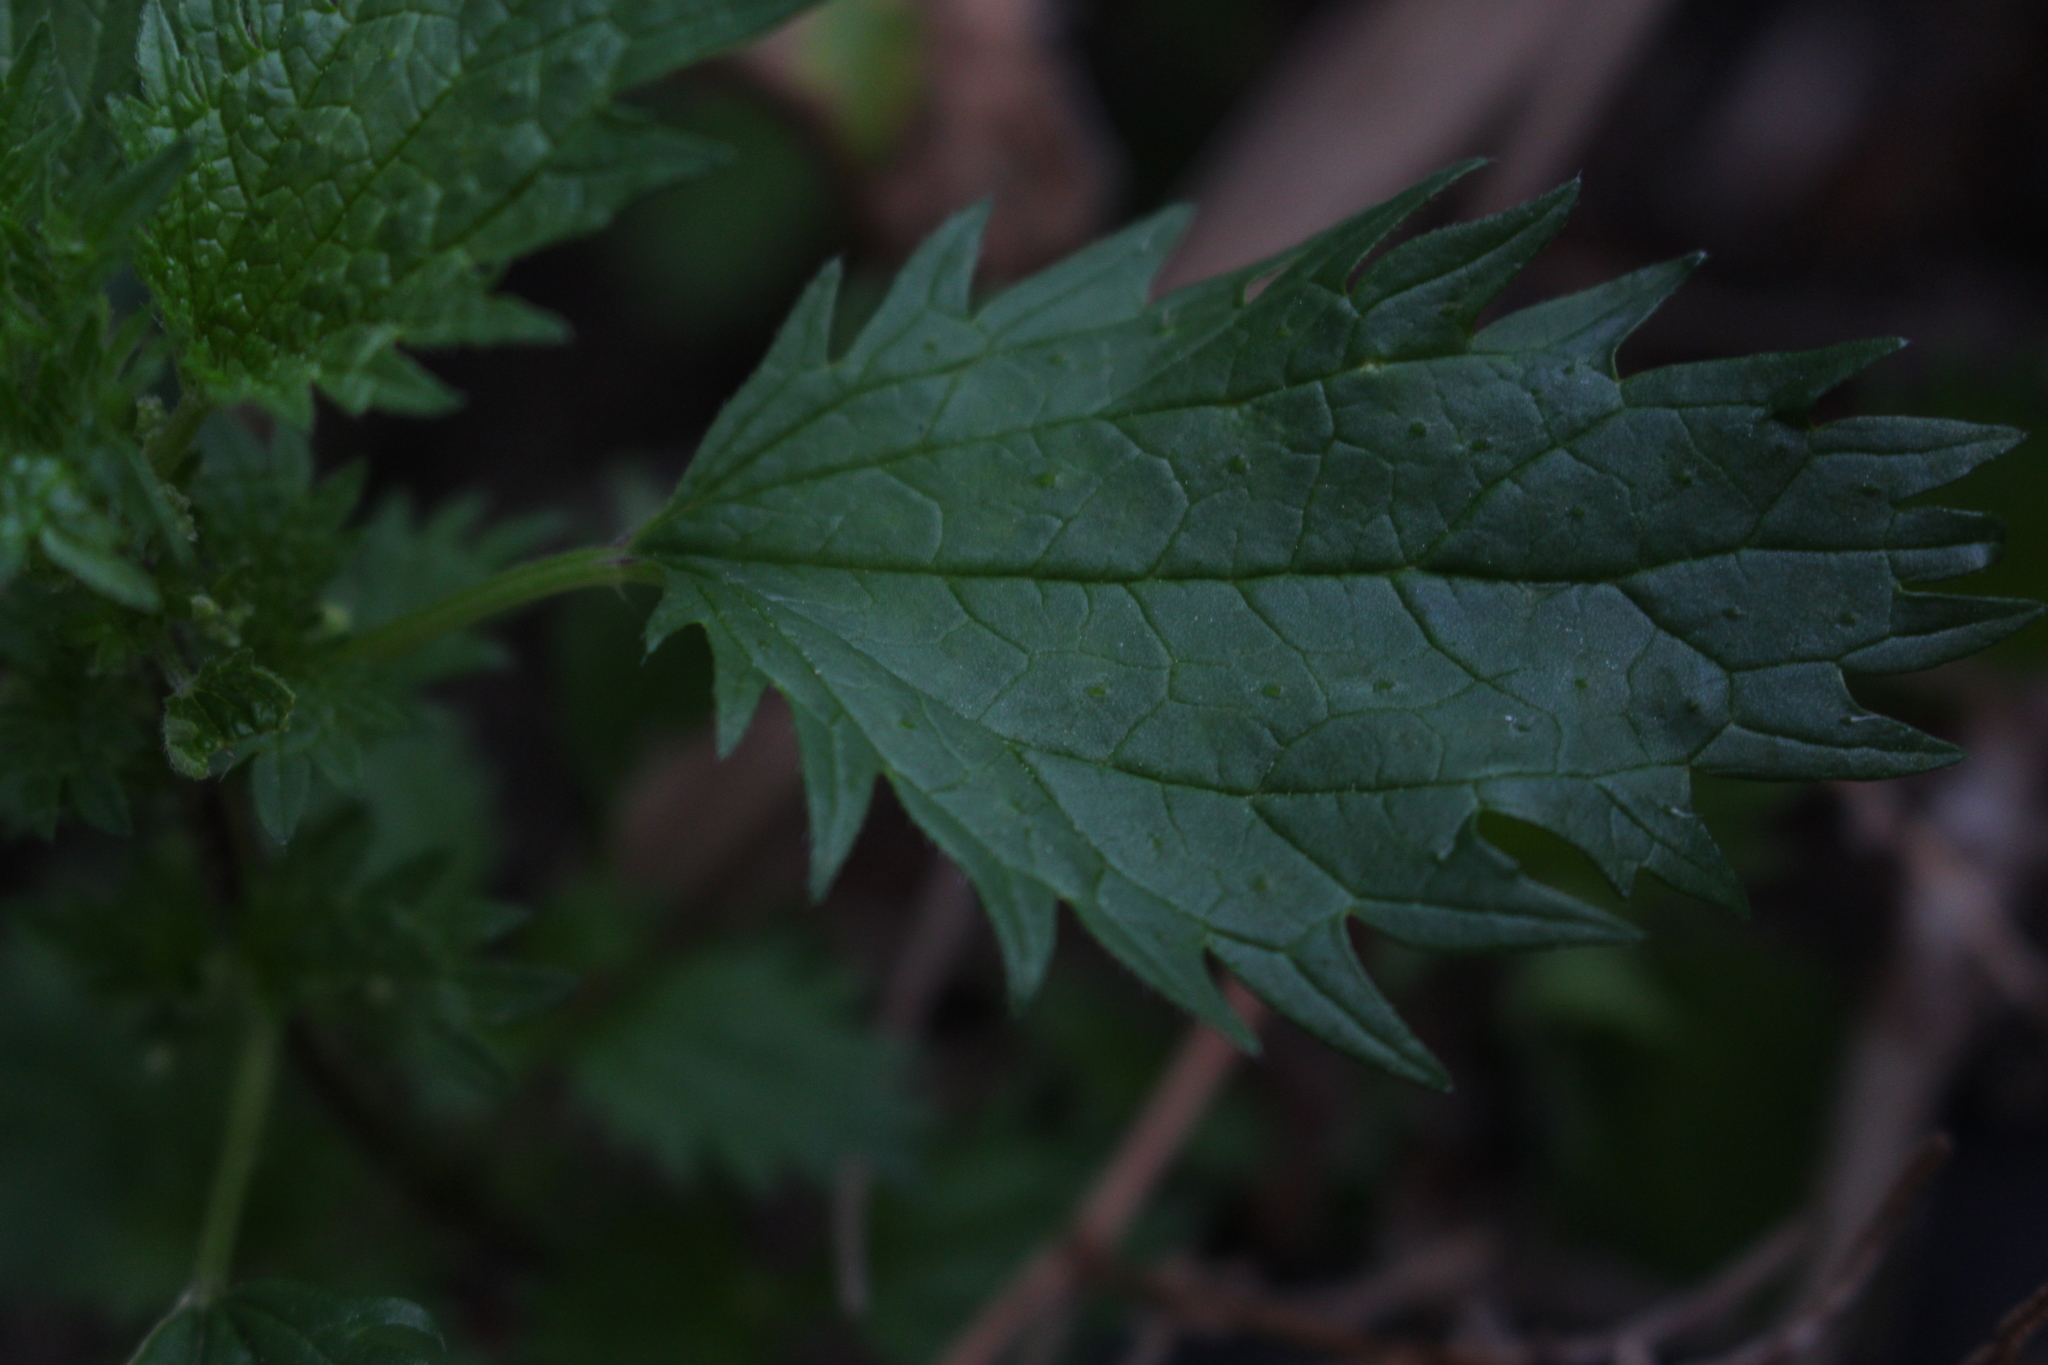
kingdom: Plantae
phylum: Tracheophyta
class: Magnoliopsida
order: Rosales
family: Urticaceae
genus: Urtica
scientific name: Urtica urens
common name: Dwarf nettle
